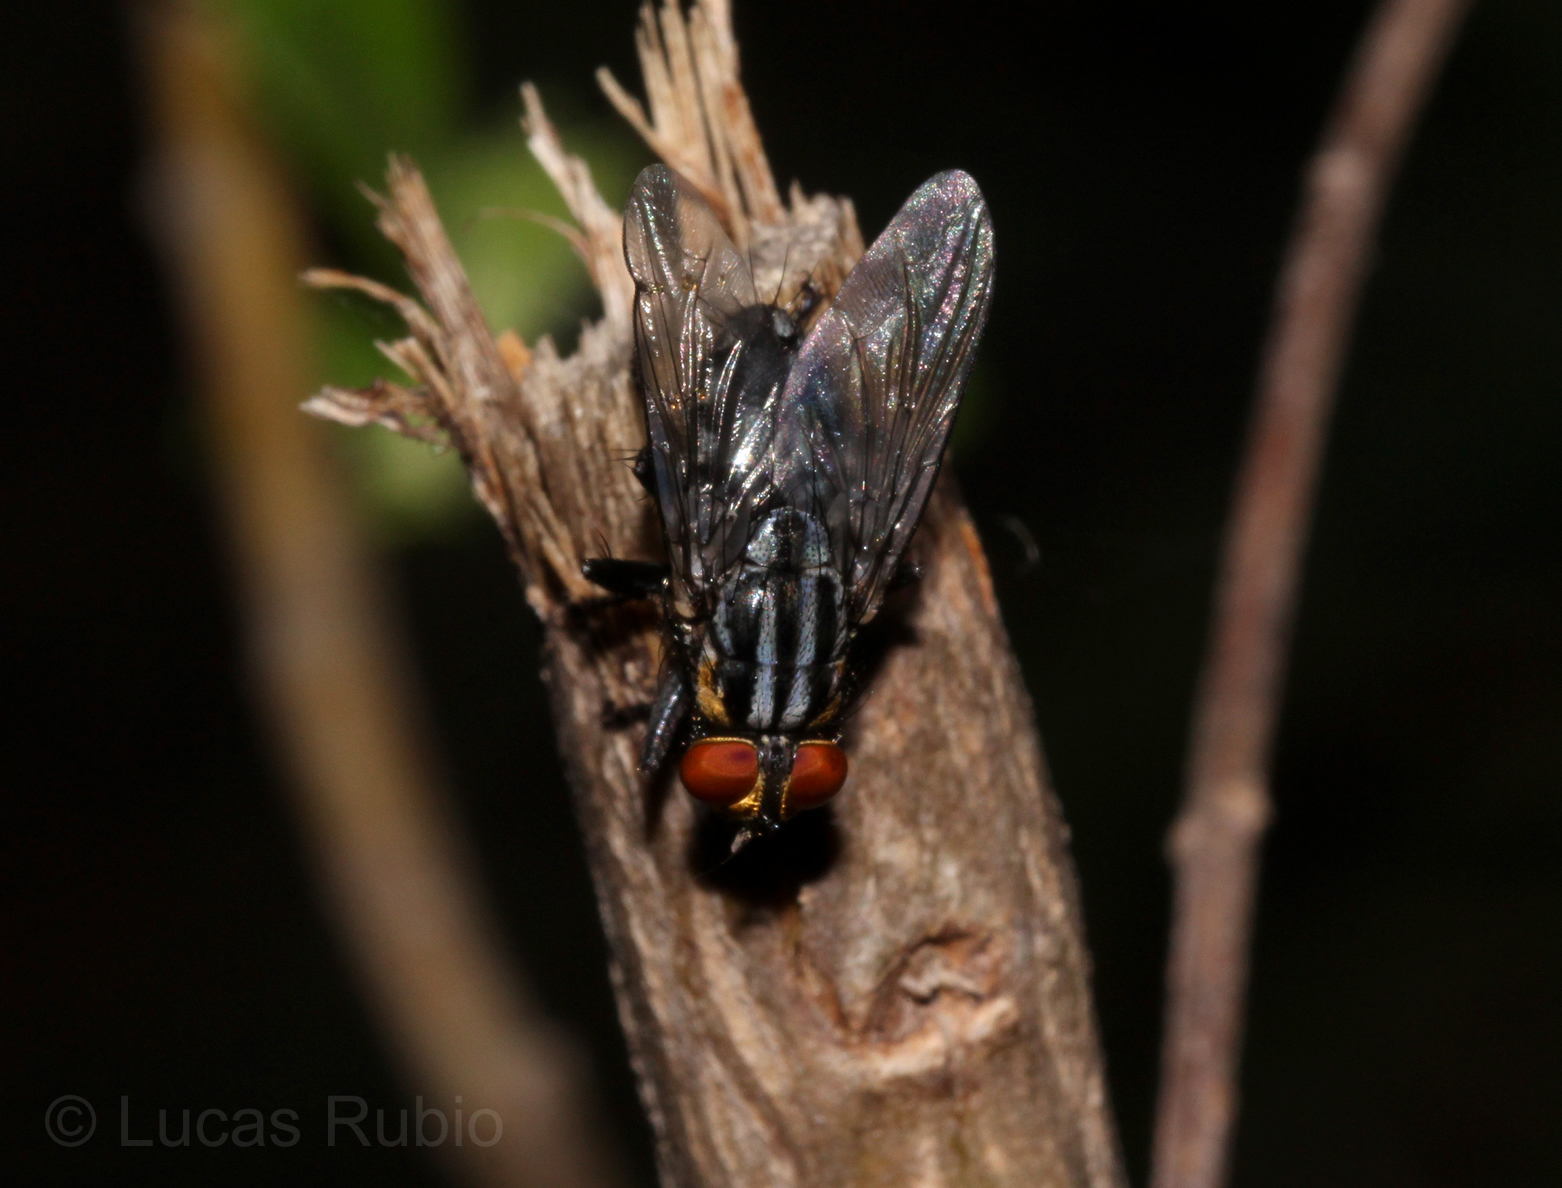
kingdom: Animalia
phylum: Arthropoda
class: Insecta
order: Diptera
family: Sarcophagidae
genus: Oxysarcodexia
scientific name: Oxysarcodexia culmiforceps
